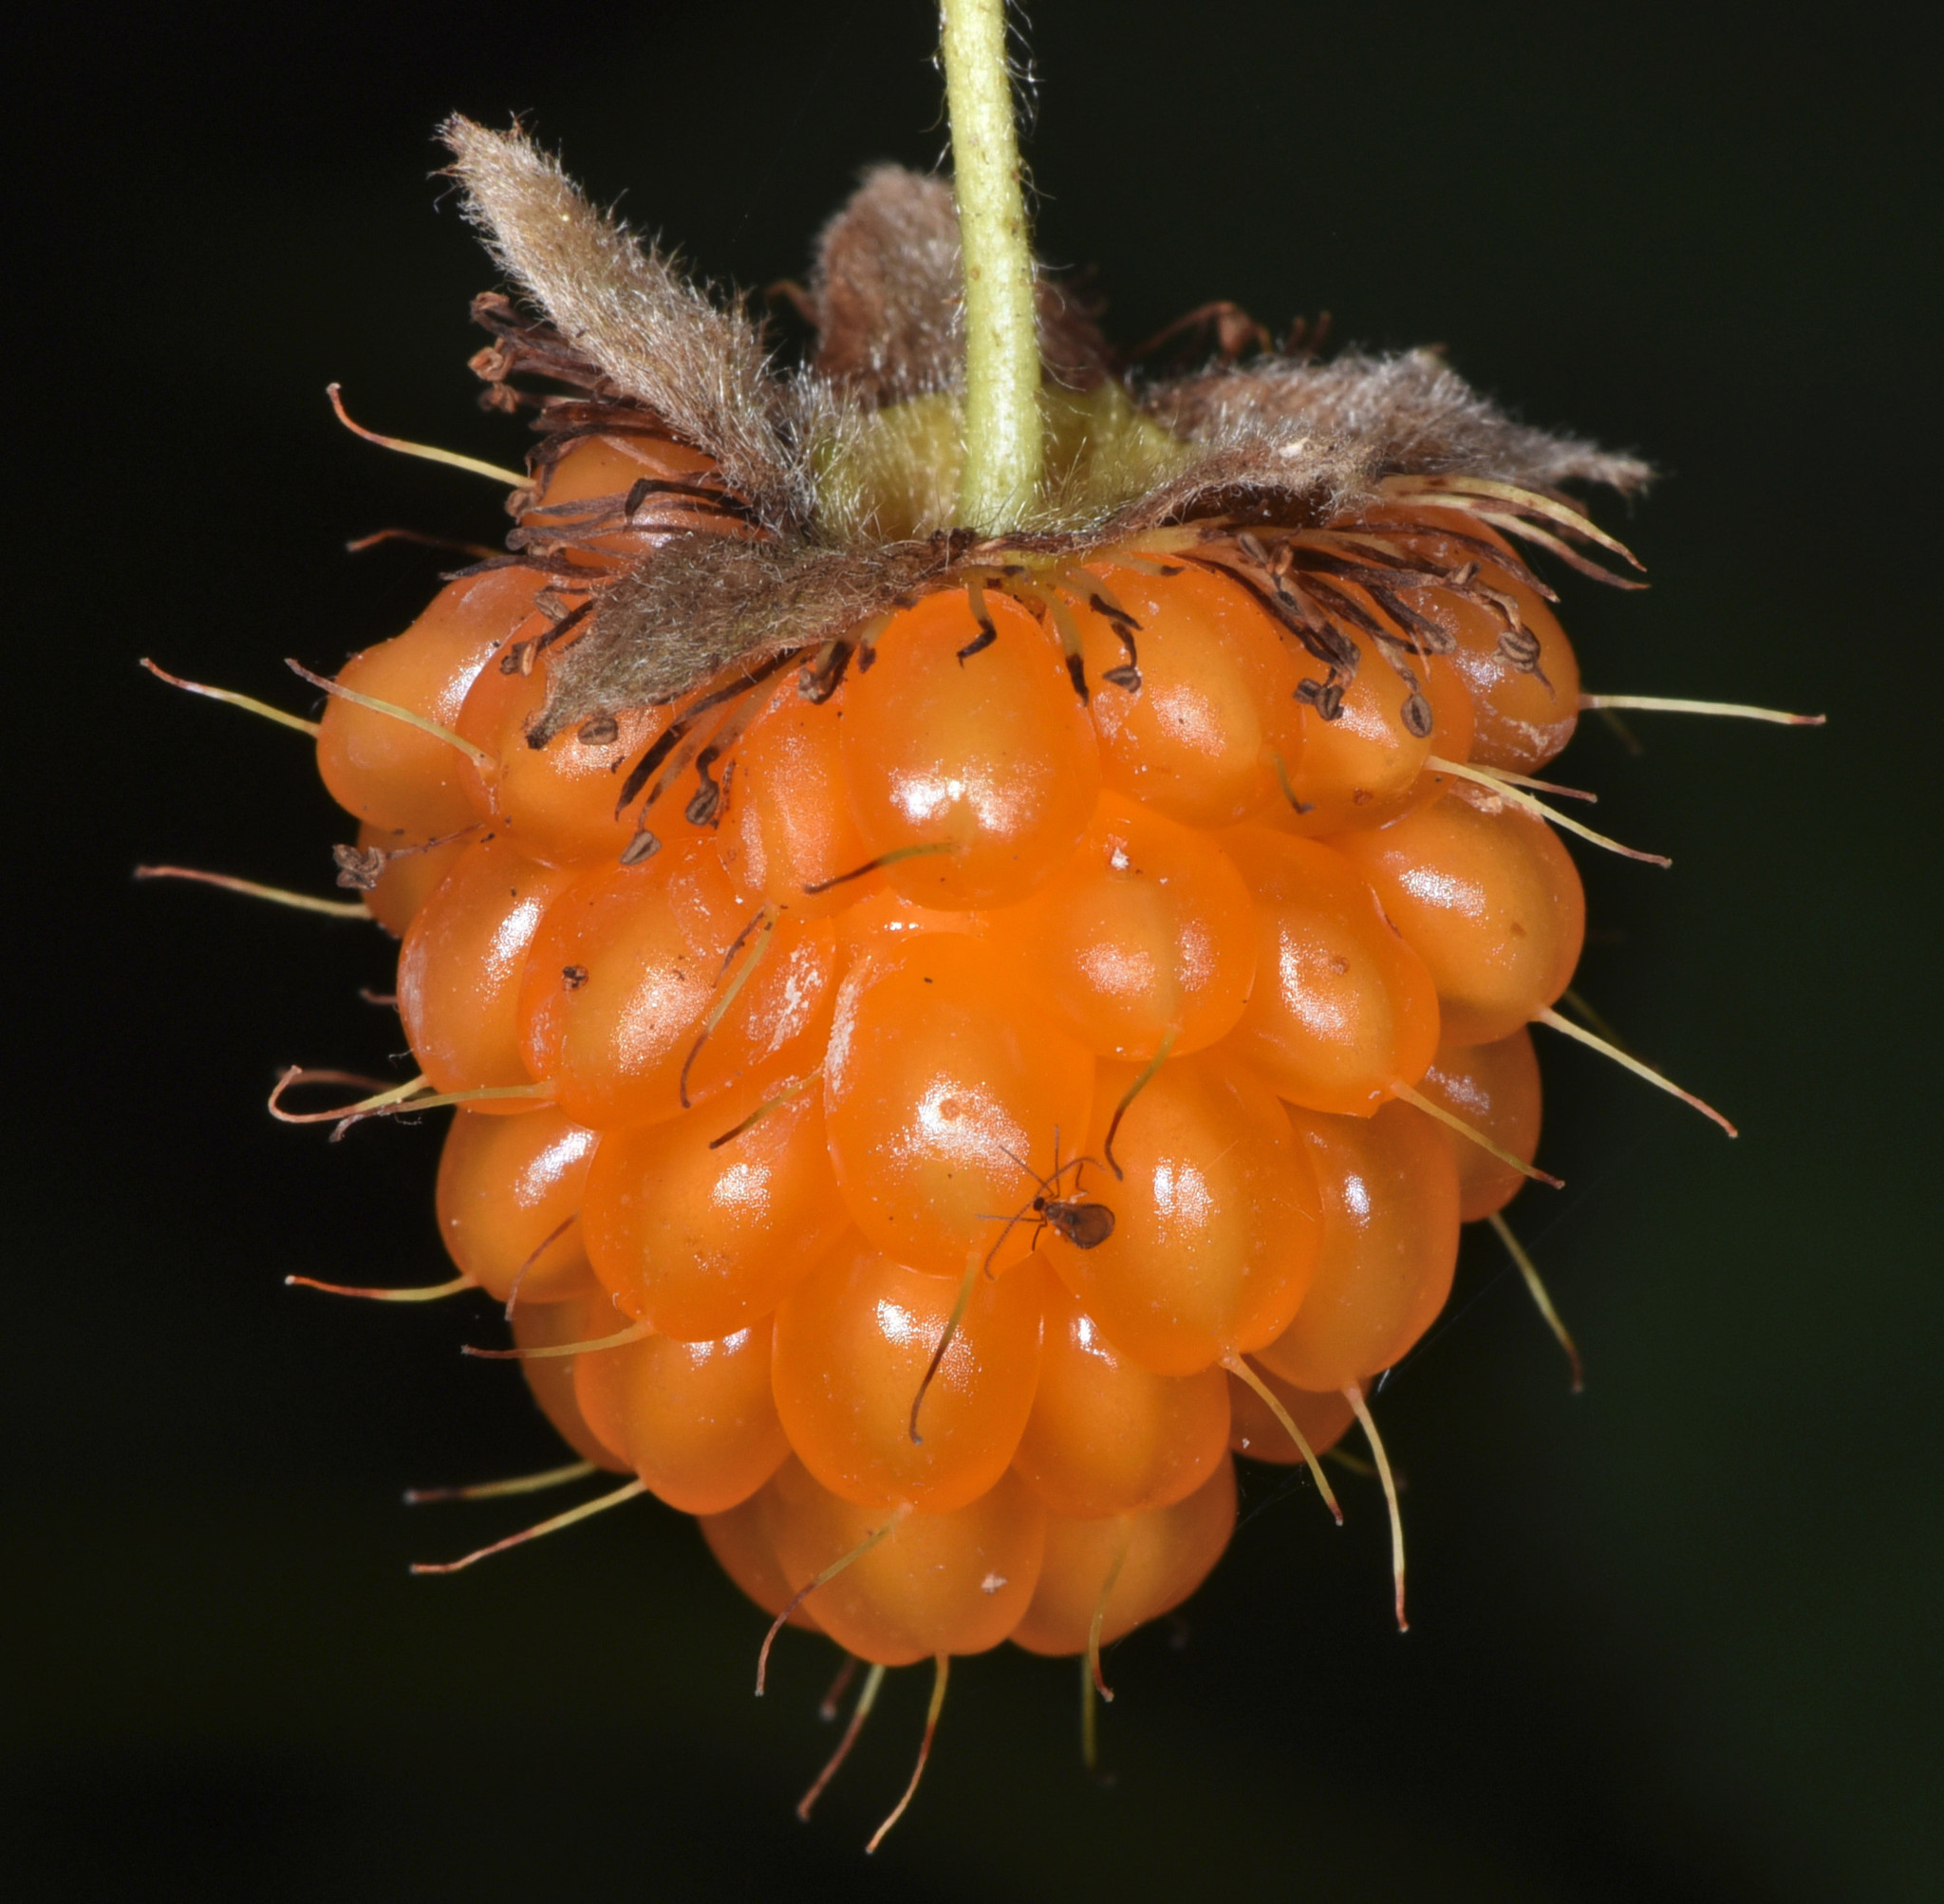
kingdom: Plantae
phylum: Tracheophyta
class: Magnoliopsida
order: Rosales
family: Rosaceae
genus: Rubus
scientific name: Rubus spectabilis
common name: Salmonberry
